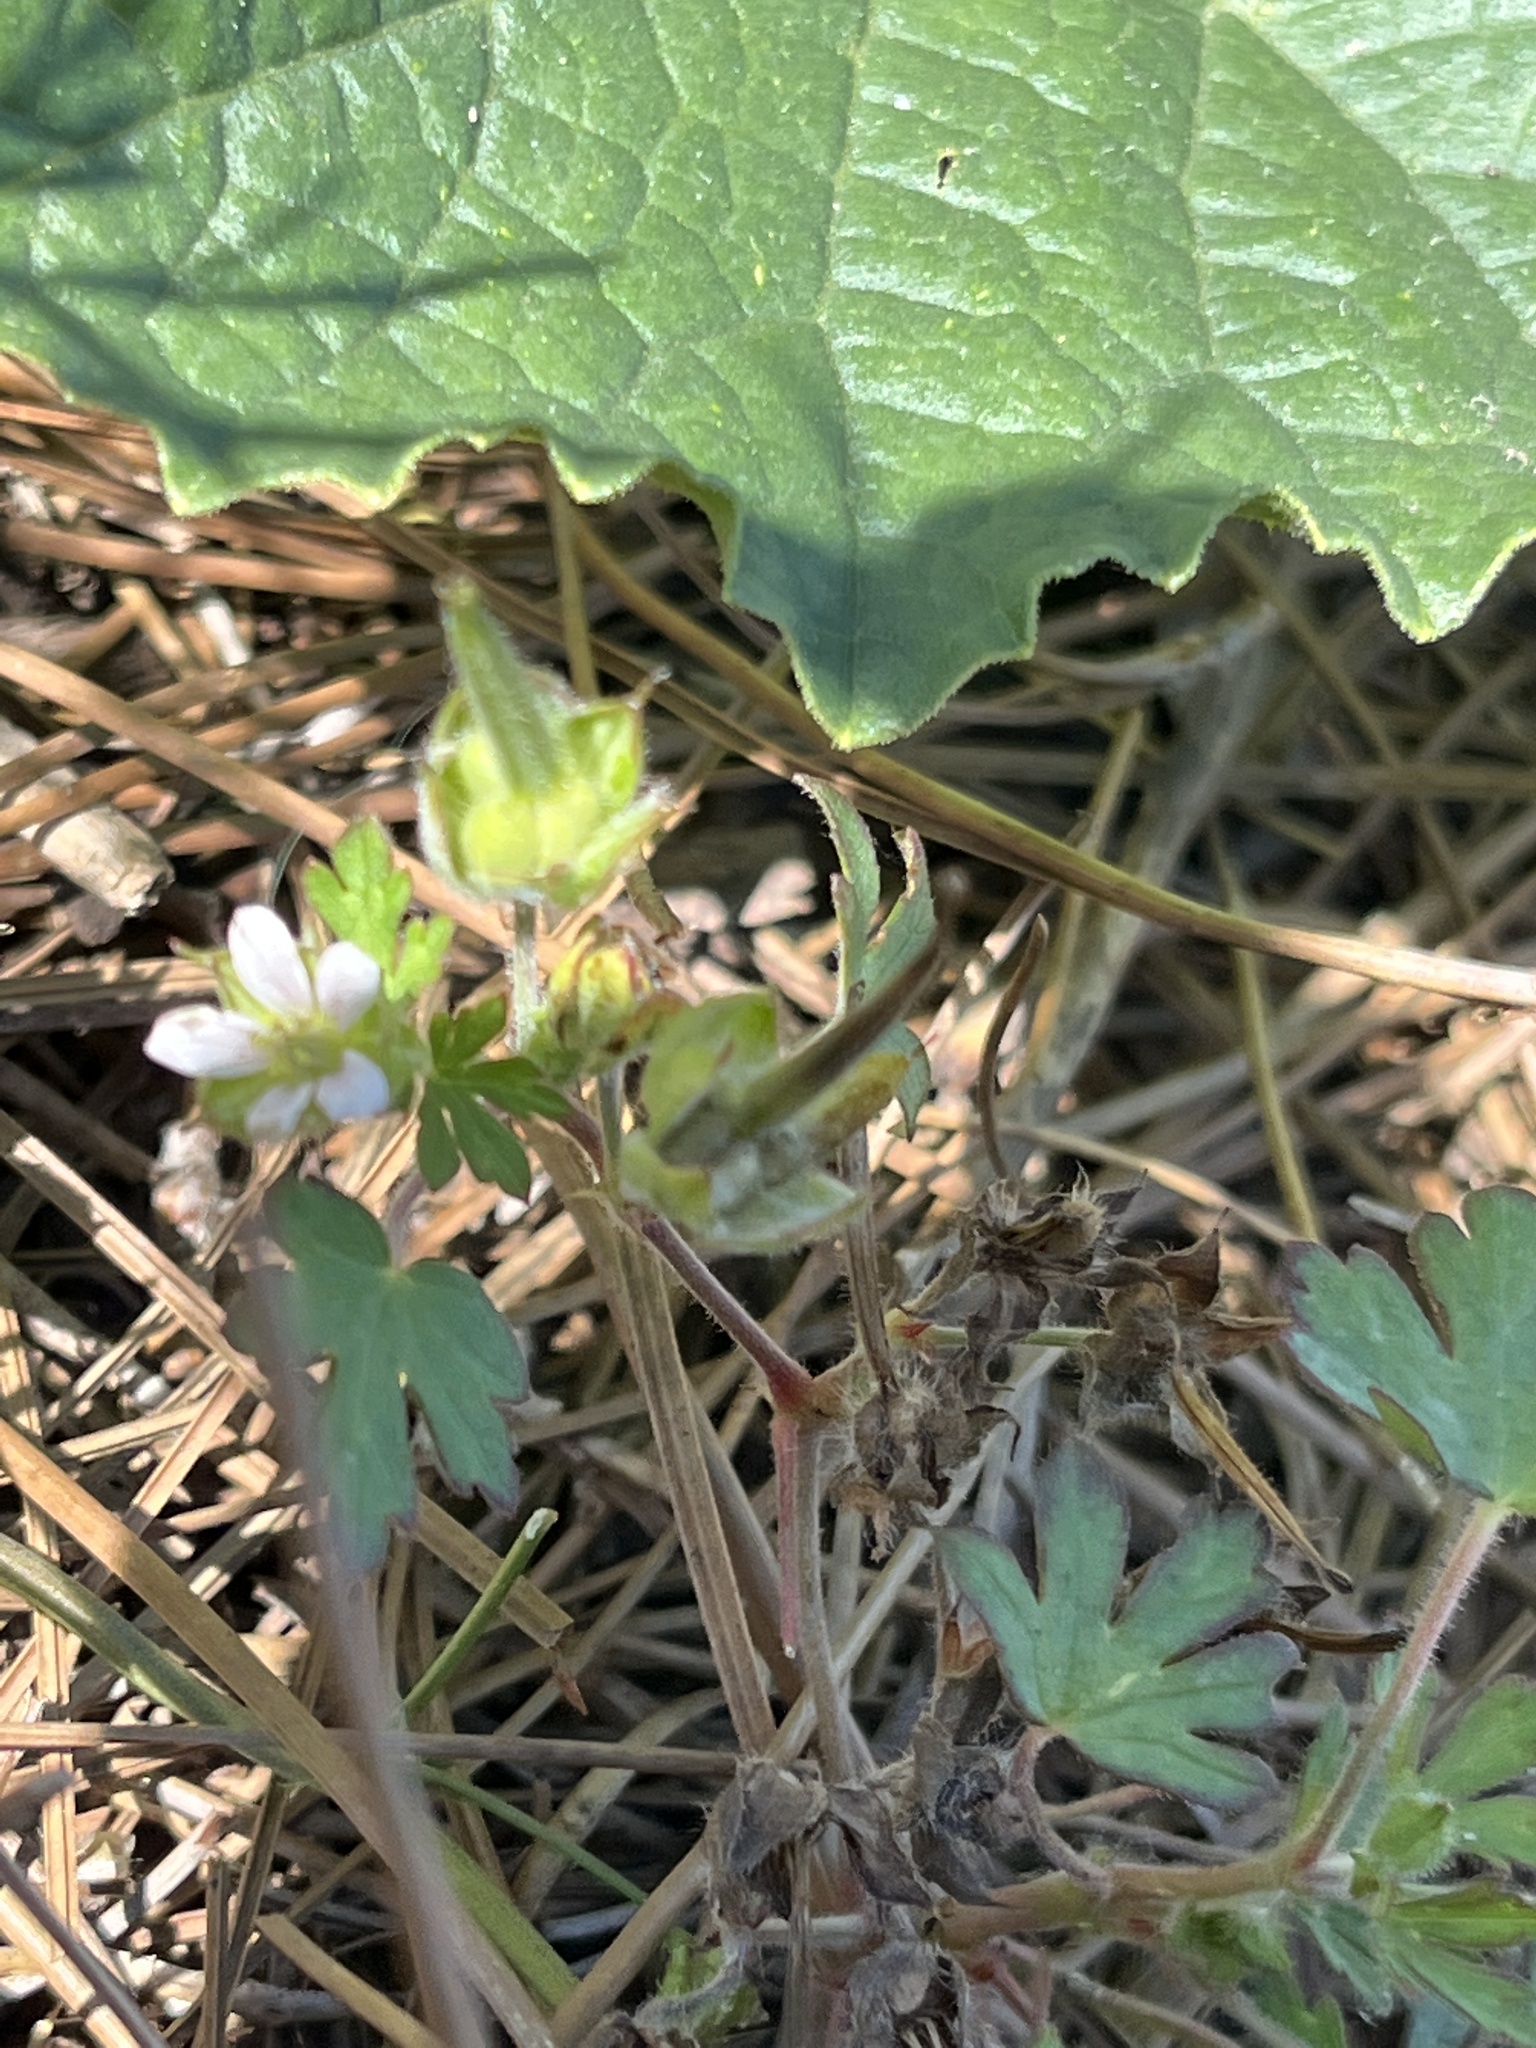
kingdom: Plantae
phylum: Tracheophyta
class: Magnoliopsida
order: Geraniales
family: Geraniaceae
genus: Geranium
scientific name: Geranium carolinianum
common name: Carolina crane's-bill
